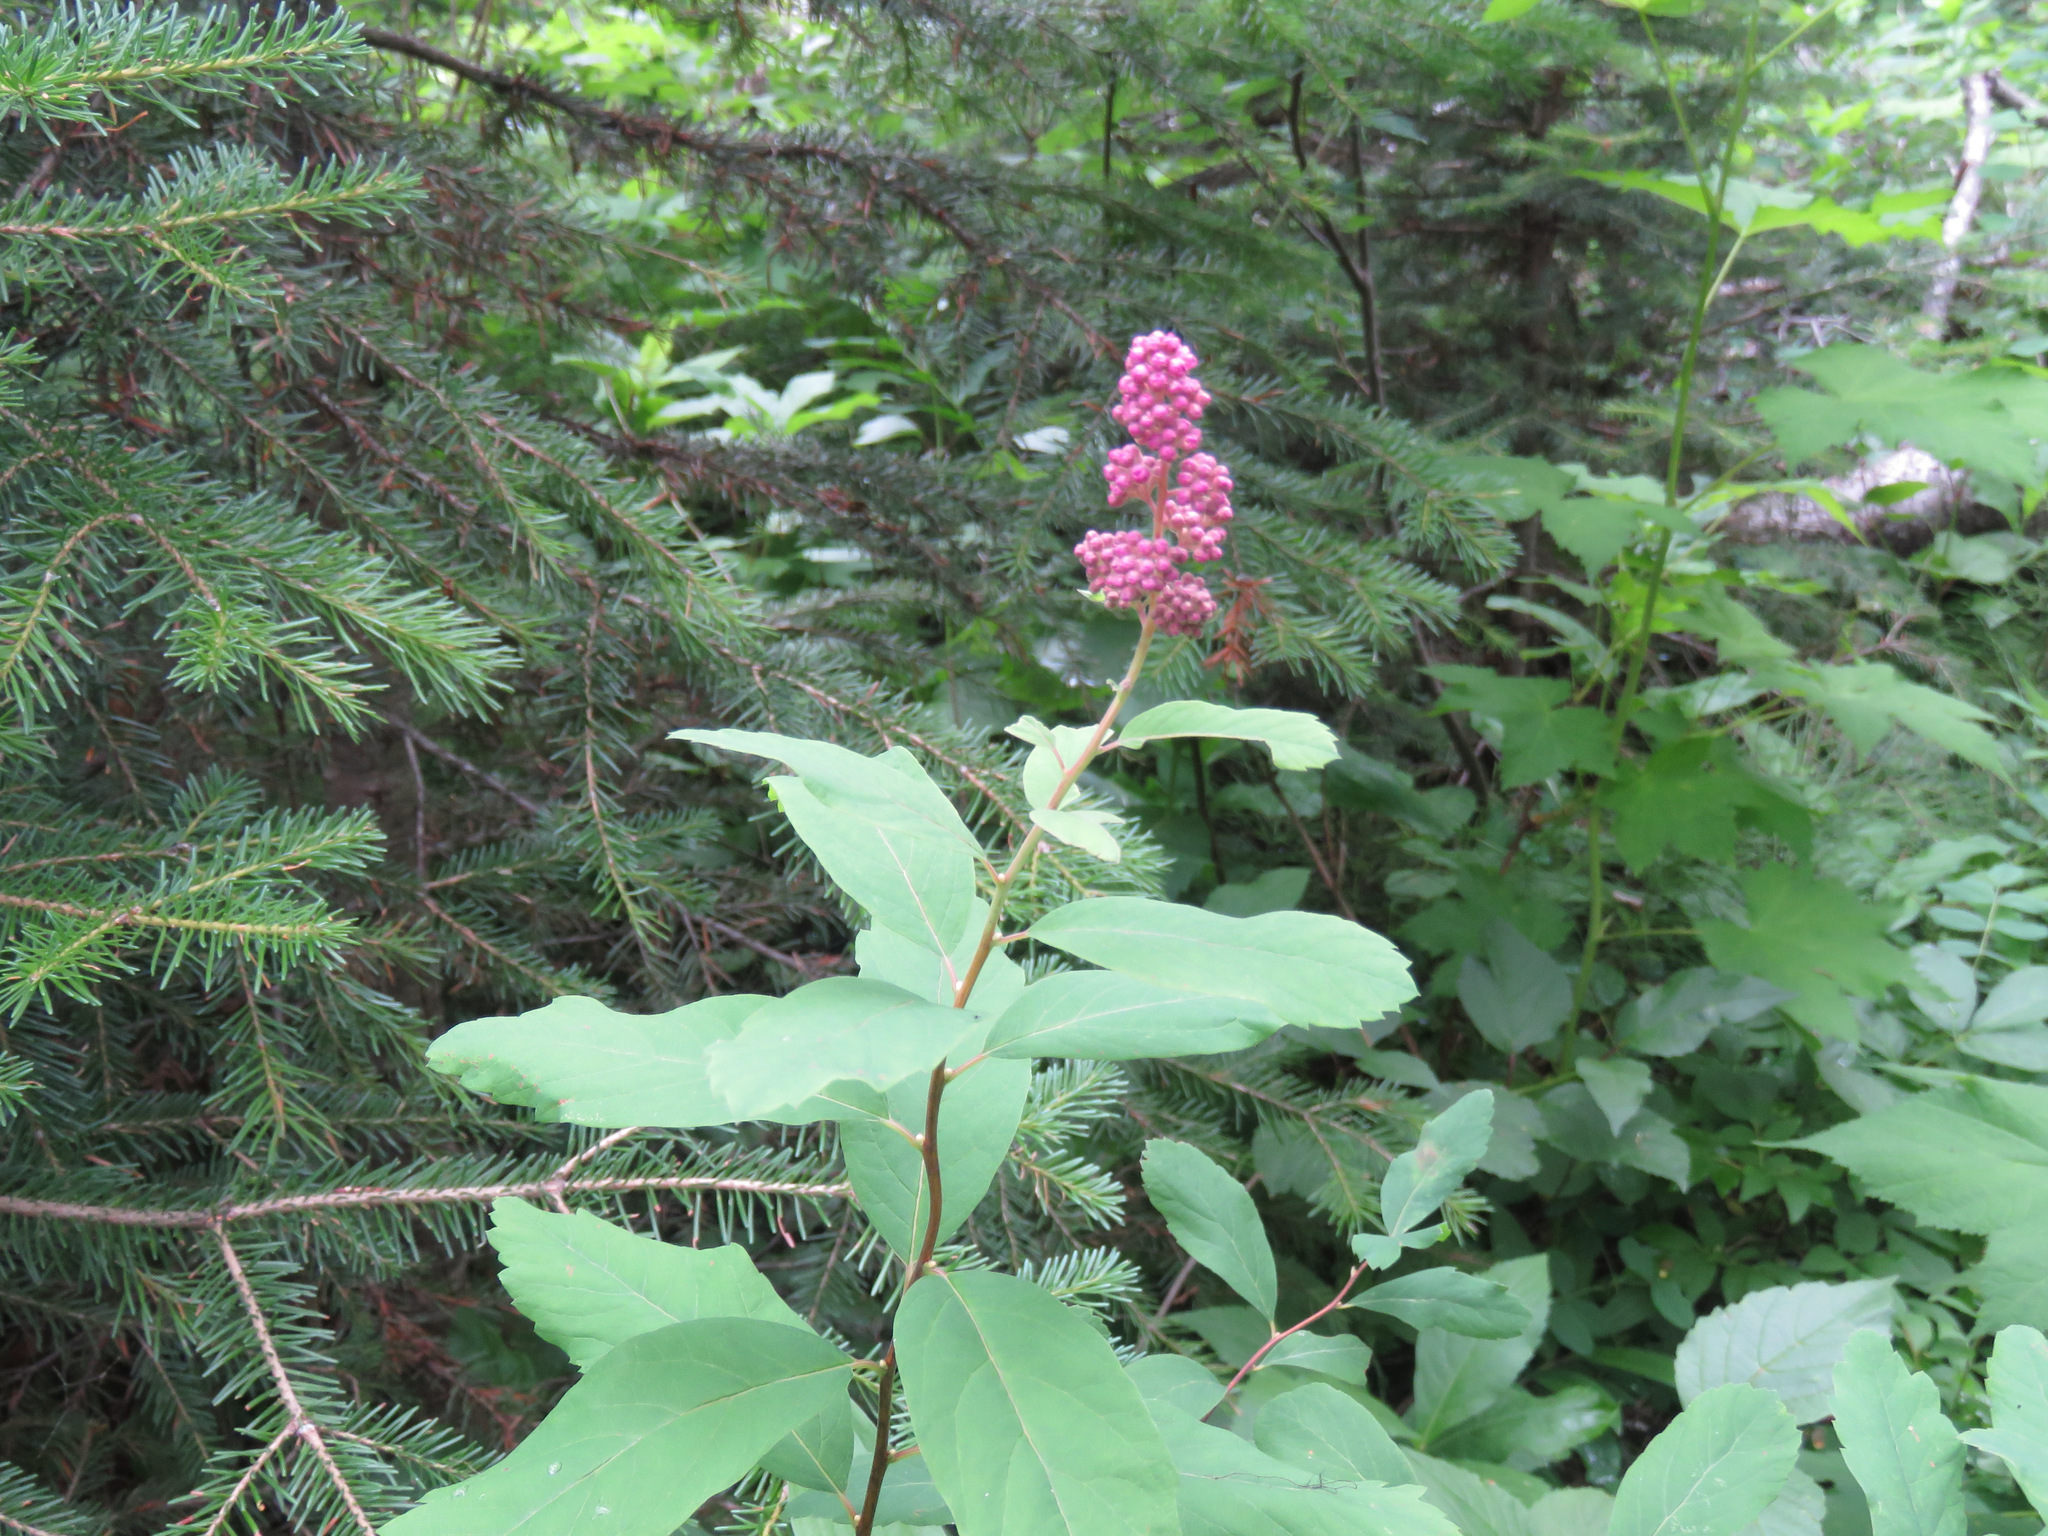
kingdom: Plantae
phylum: Tracheophyta
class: Magnoliopsida
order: Rosales
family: Rosaceae
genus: Spiraea
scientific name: Spiraea douglasii
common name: Steeplebush
